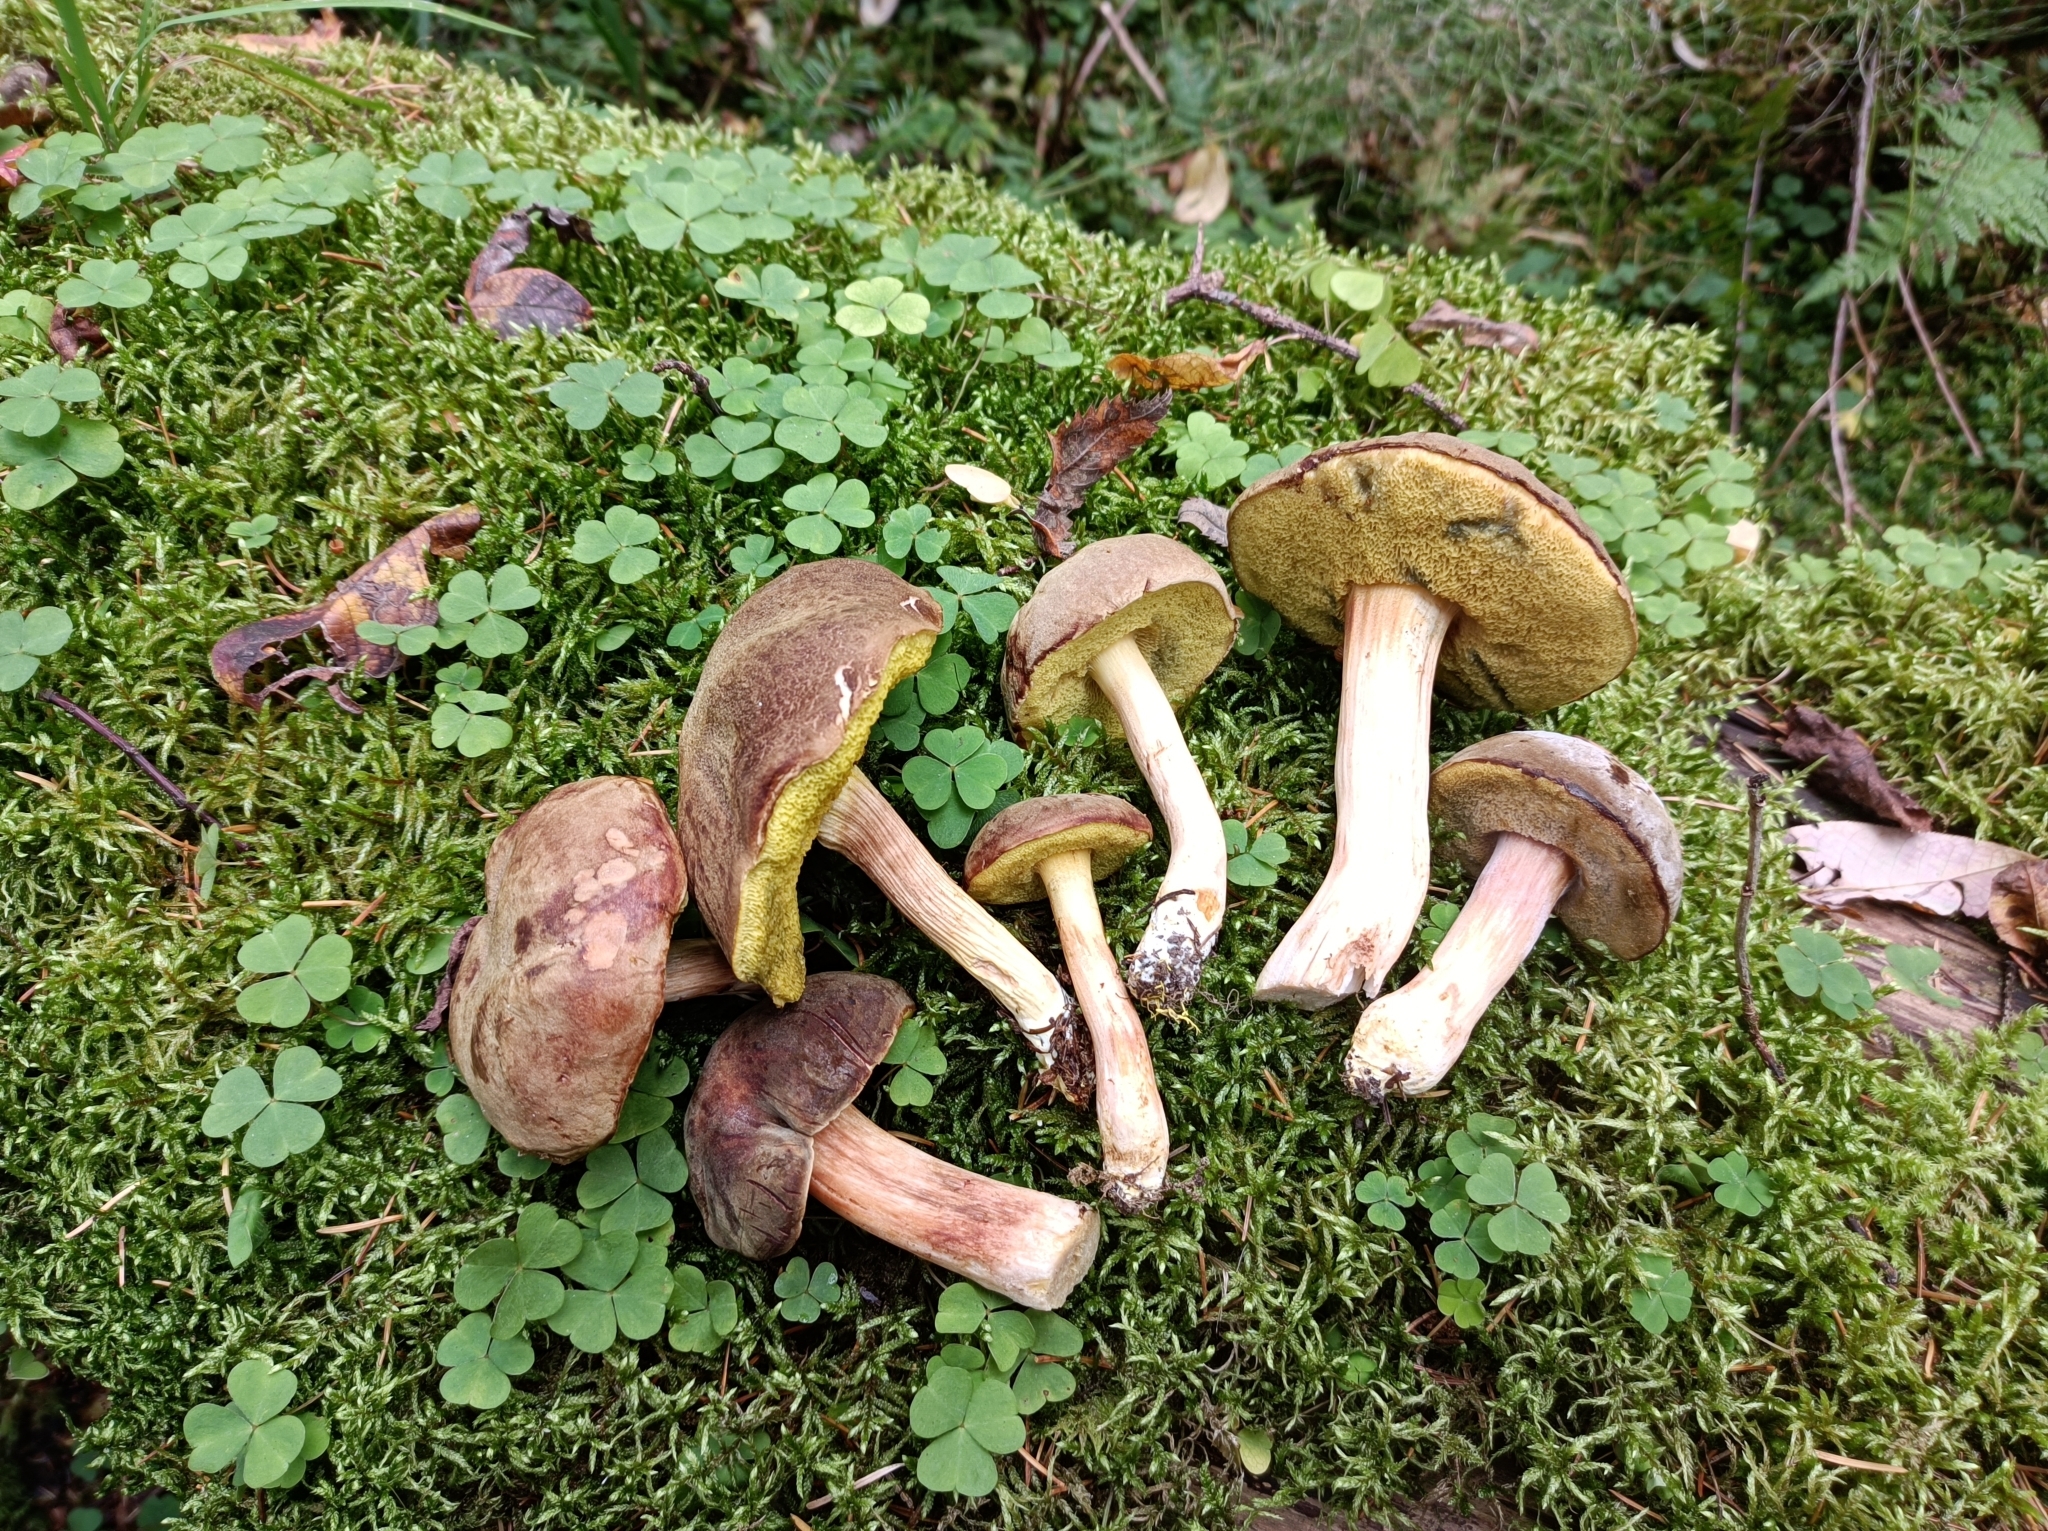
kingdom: Fungi
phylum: Basidiomycota
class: Agaricomycetes
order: Boletales
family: Boletaceae
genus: Xerocomellus
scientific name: Xerocomellus pruinatus
